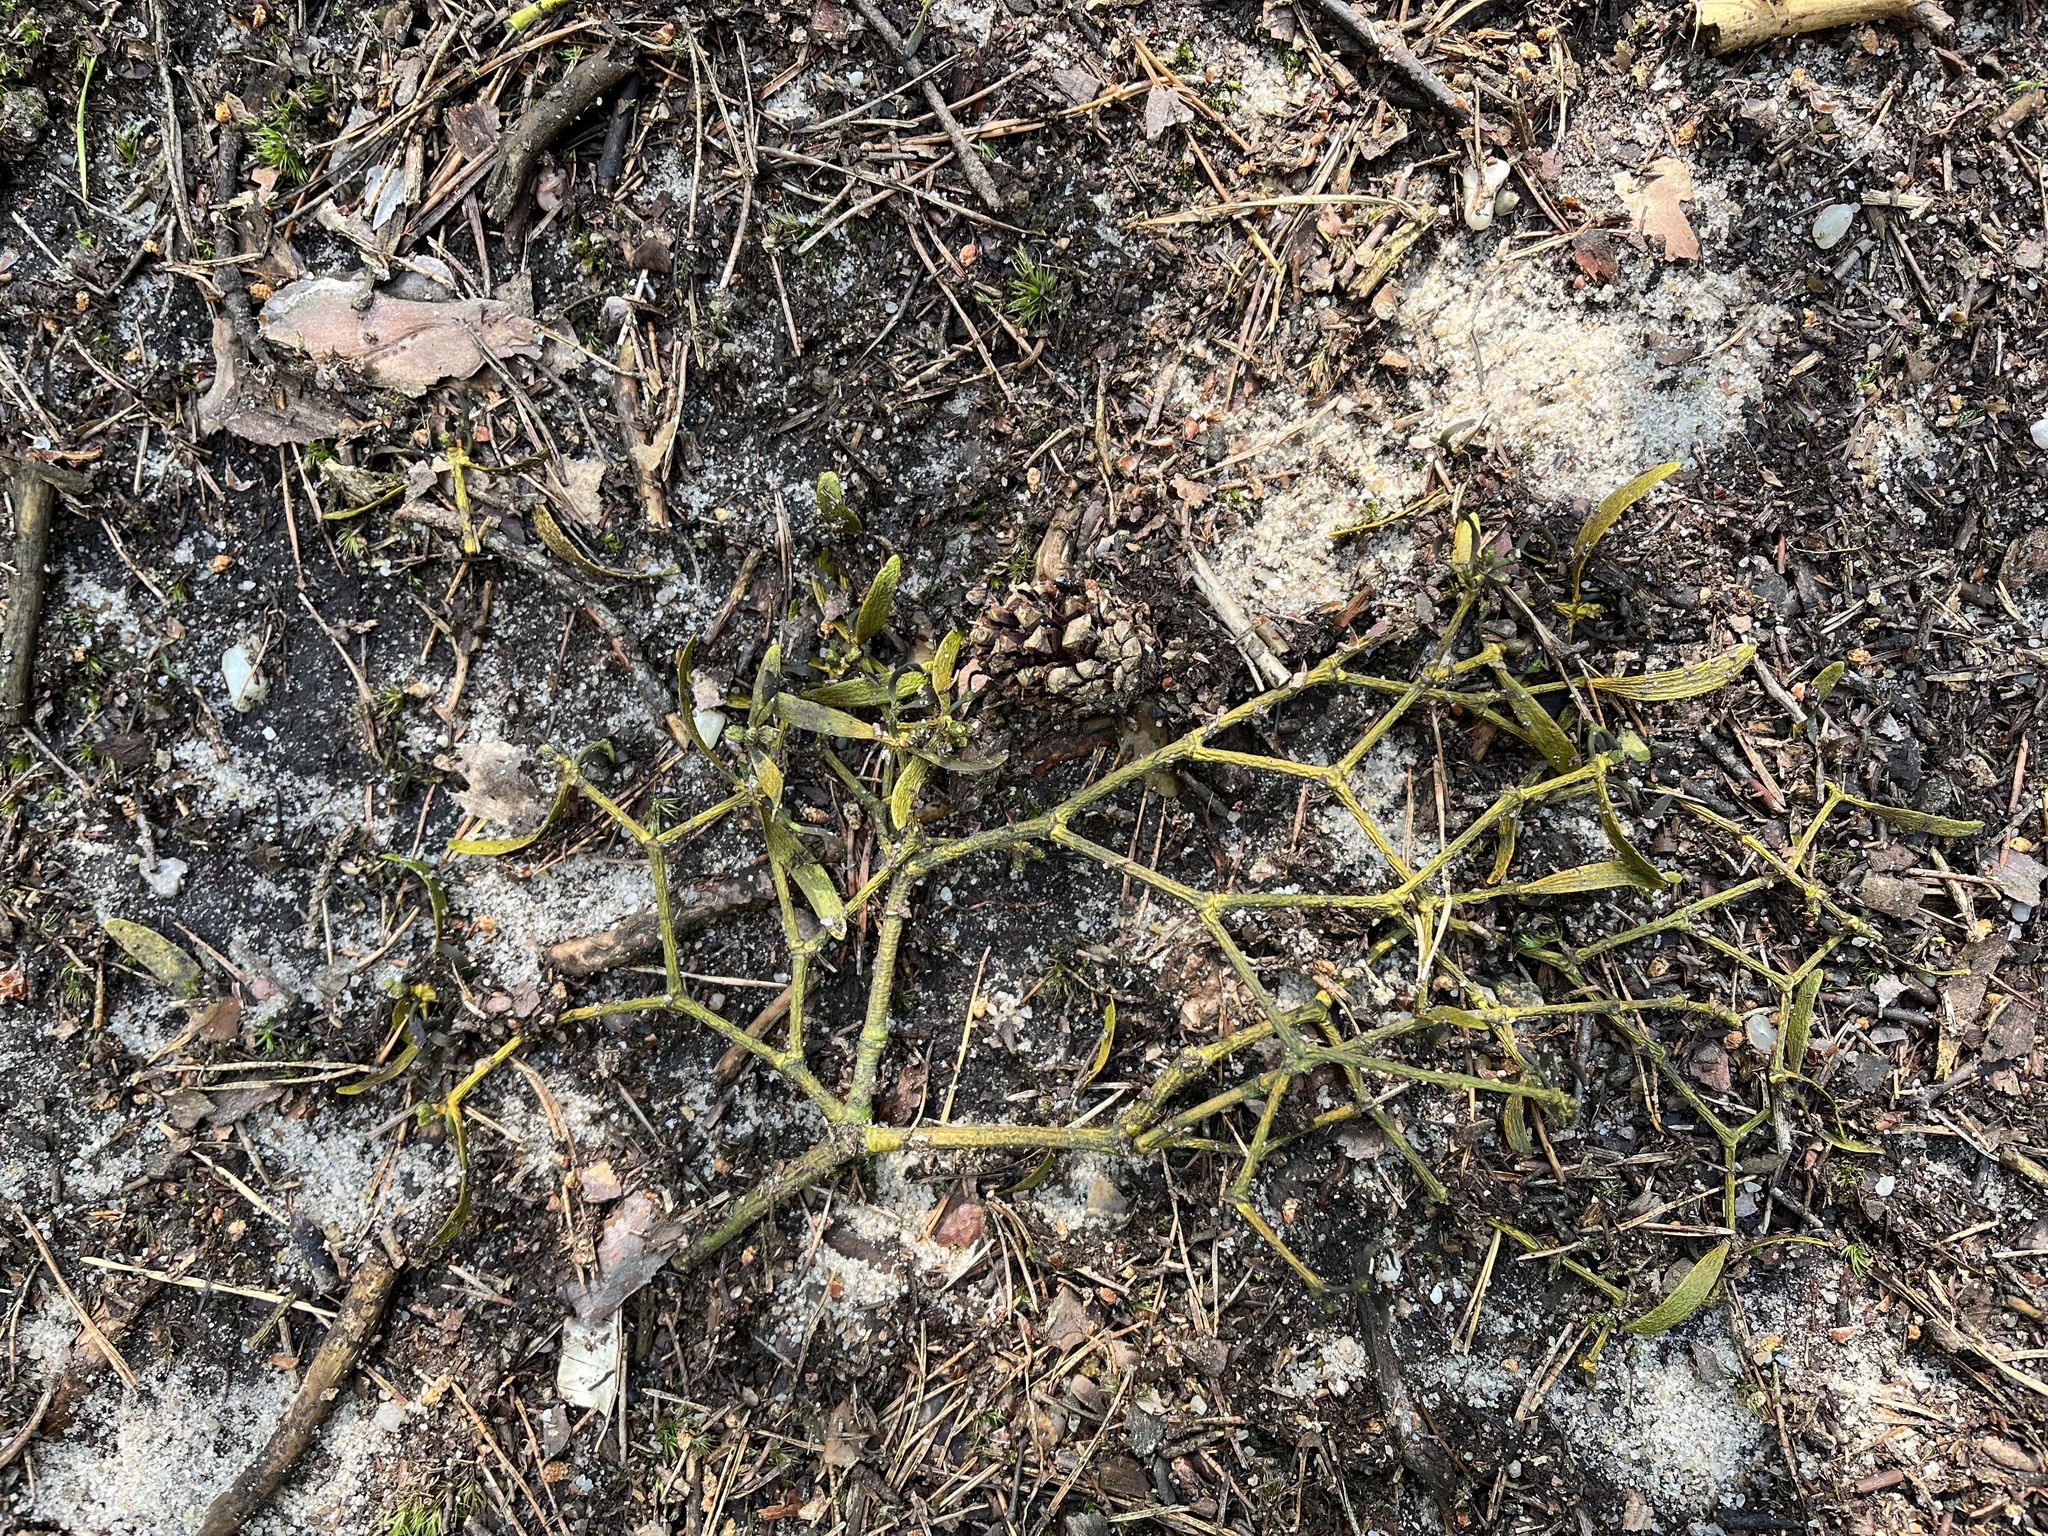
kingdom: Plantae
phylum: Tracheophyta
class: Magnoliopsida
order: Santalales
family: Viscaceae
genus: Viscum
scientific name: Viscum album
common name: Mistletoe
